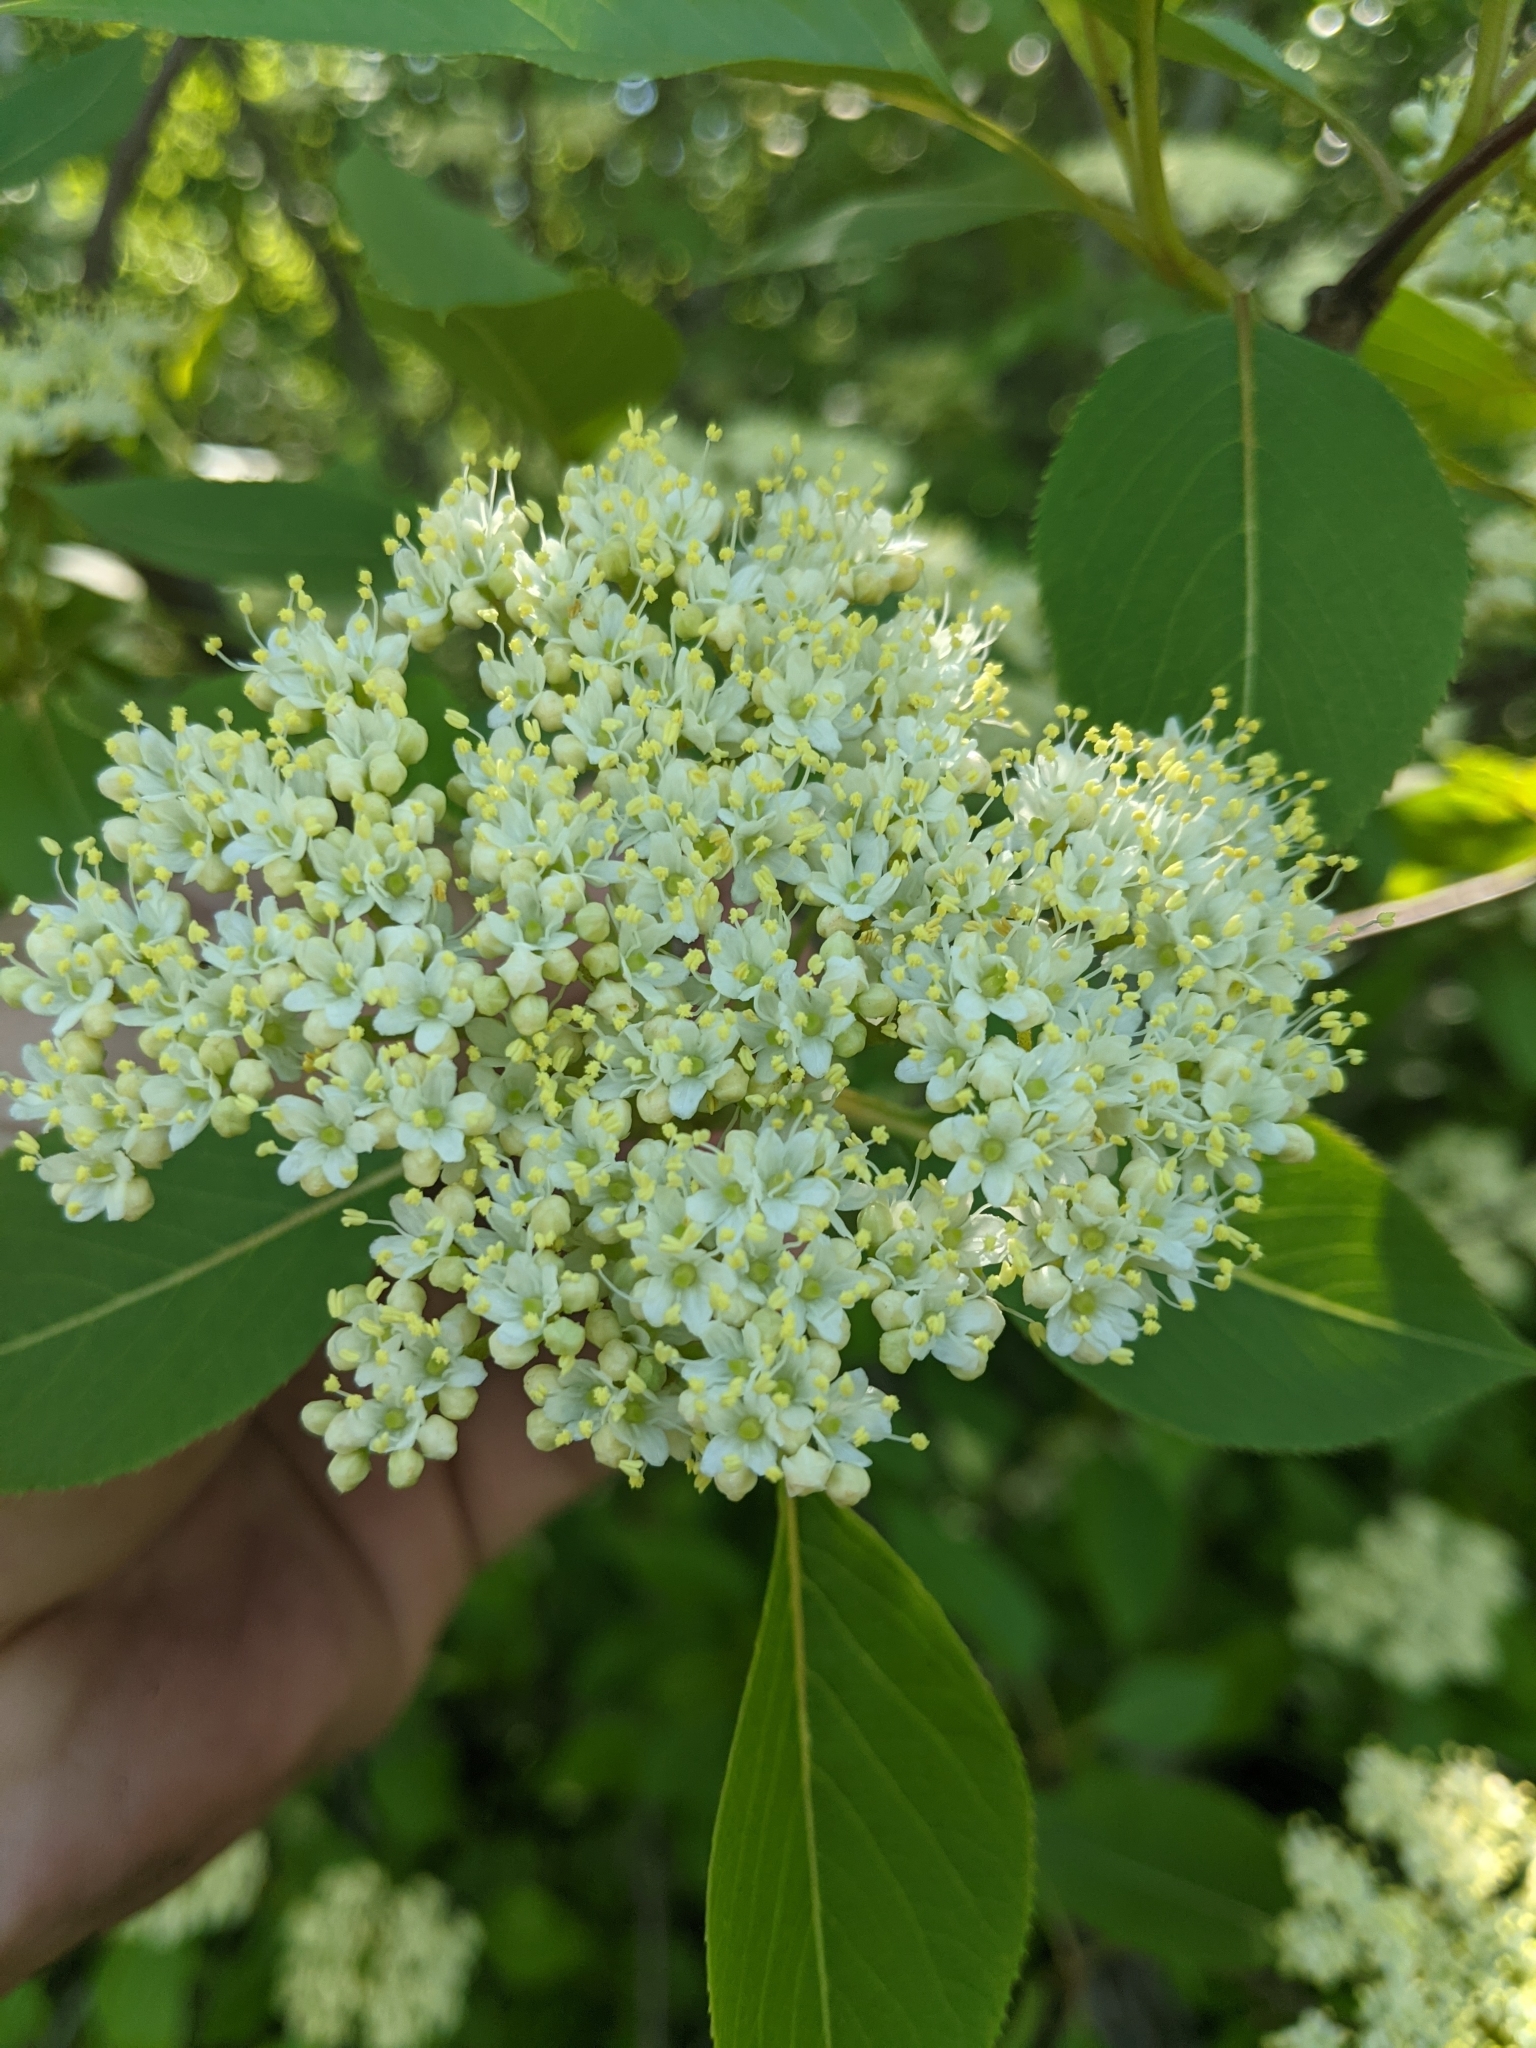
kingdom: Plantae
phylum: Tracheophyta
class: Magnoliopsida
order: Dipsacales
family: Viburnaceae
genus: Viburnum
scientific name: Viburnum lentago
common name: Black haw
